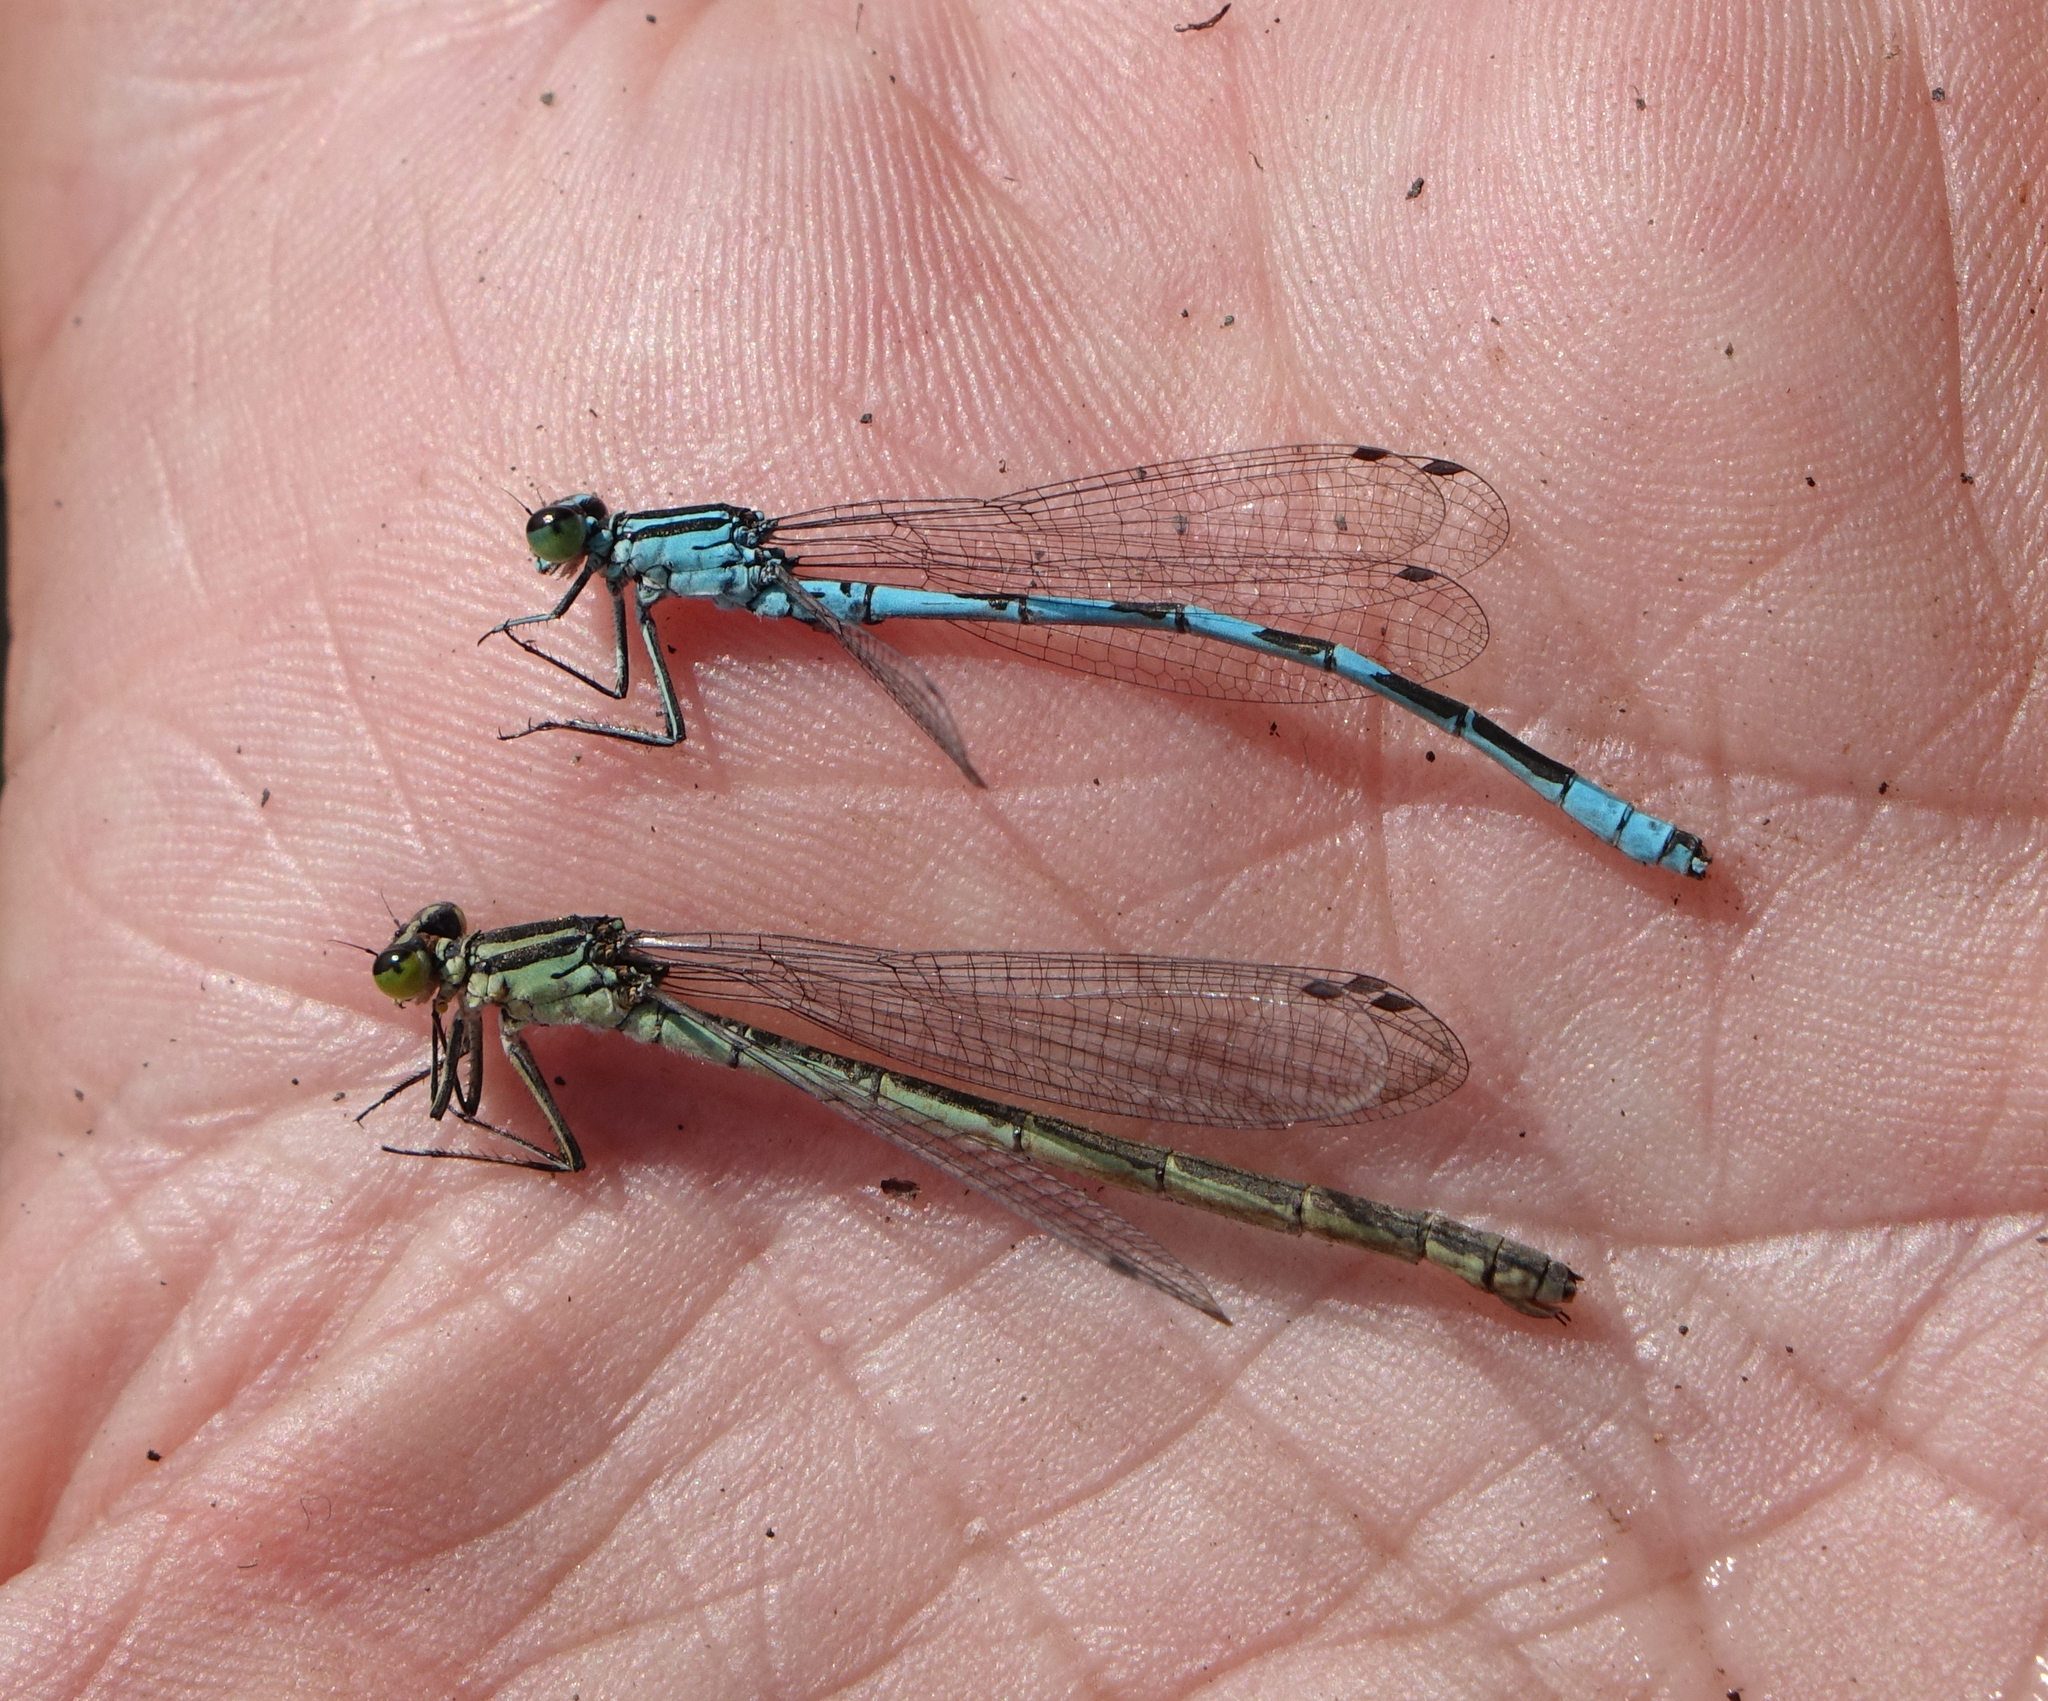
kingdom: Animalia
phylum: Arthropoda
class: Insecta
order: Odonata
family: Coenagrionidae
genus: Coenagrion
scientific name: Coenagrion hastulatum
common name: Spearhead bluet
